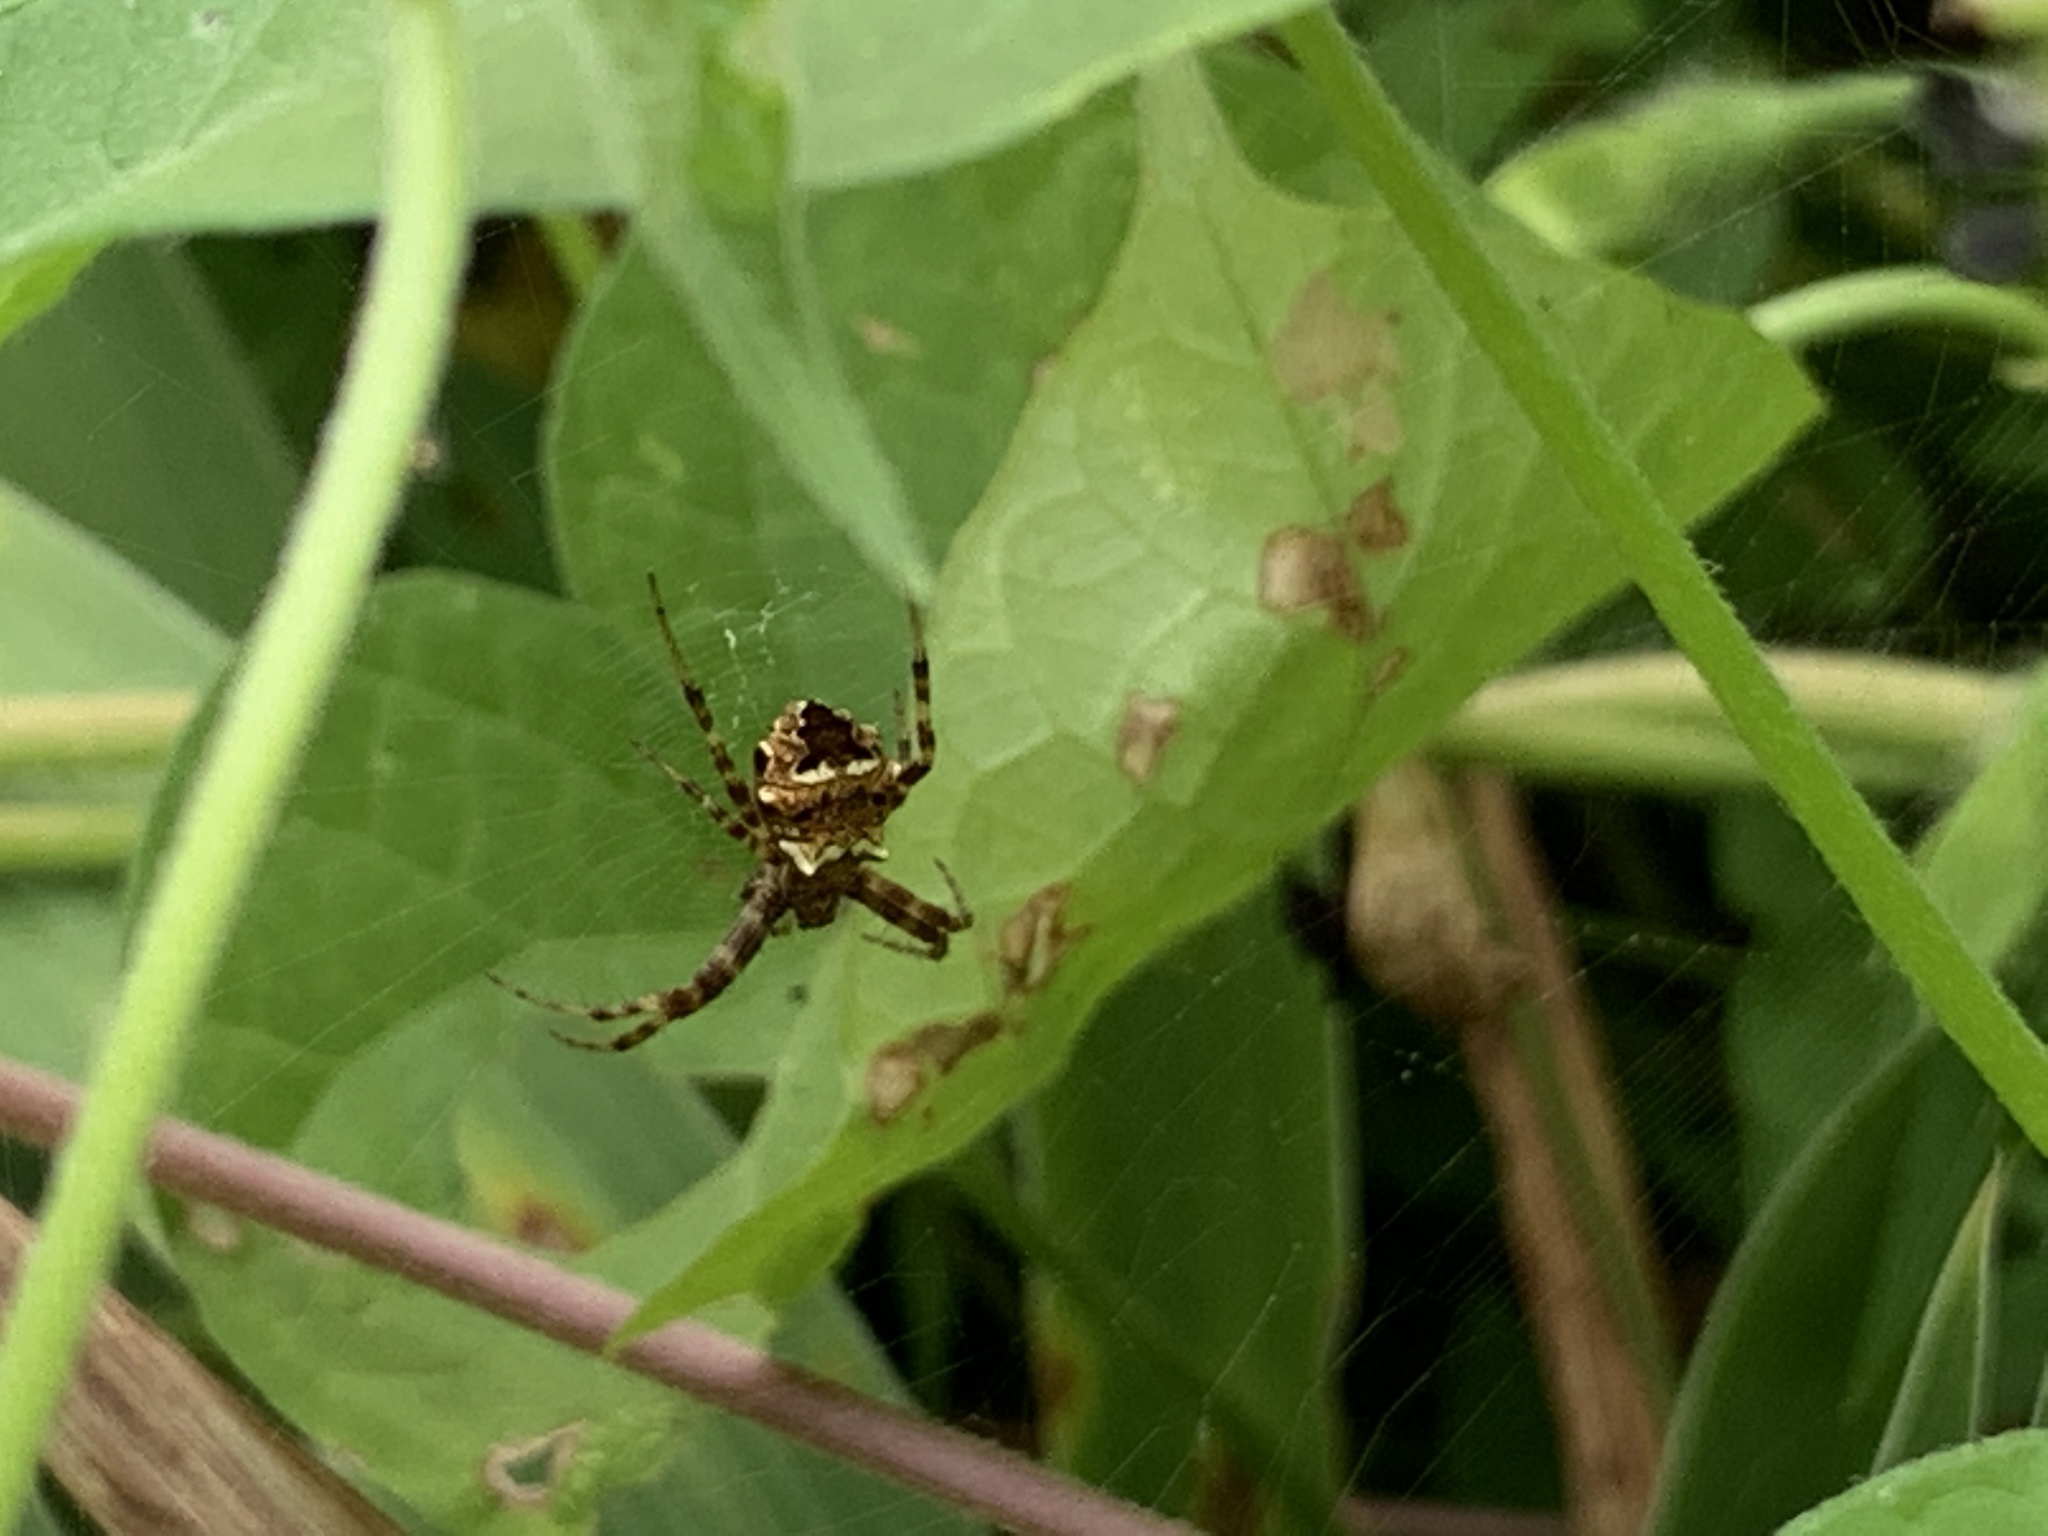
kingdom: Animalia
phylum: Arthropoda
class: Arachnida
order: Araneae
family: Araneidae
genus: Gea
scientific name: Gea heptagon
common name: Orb weavers
